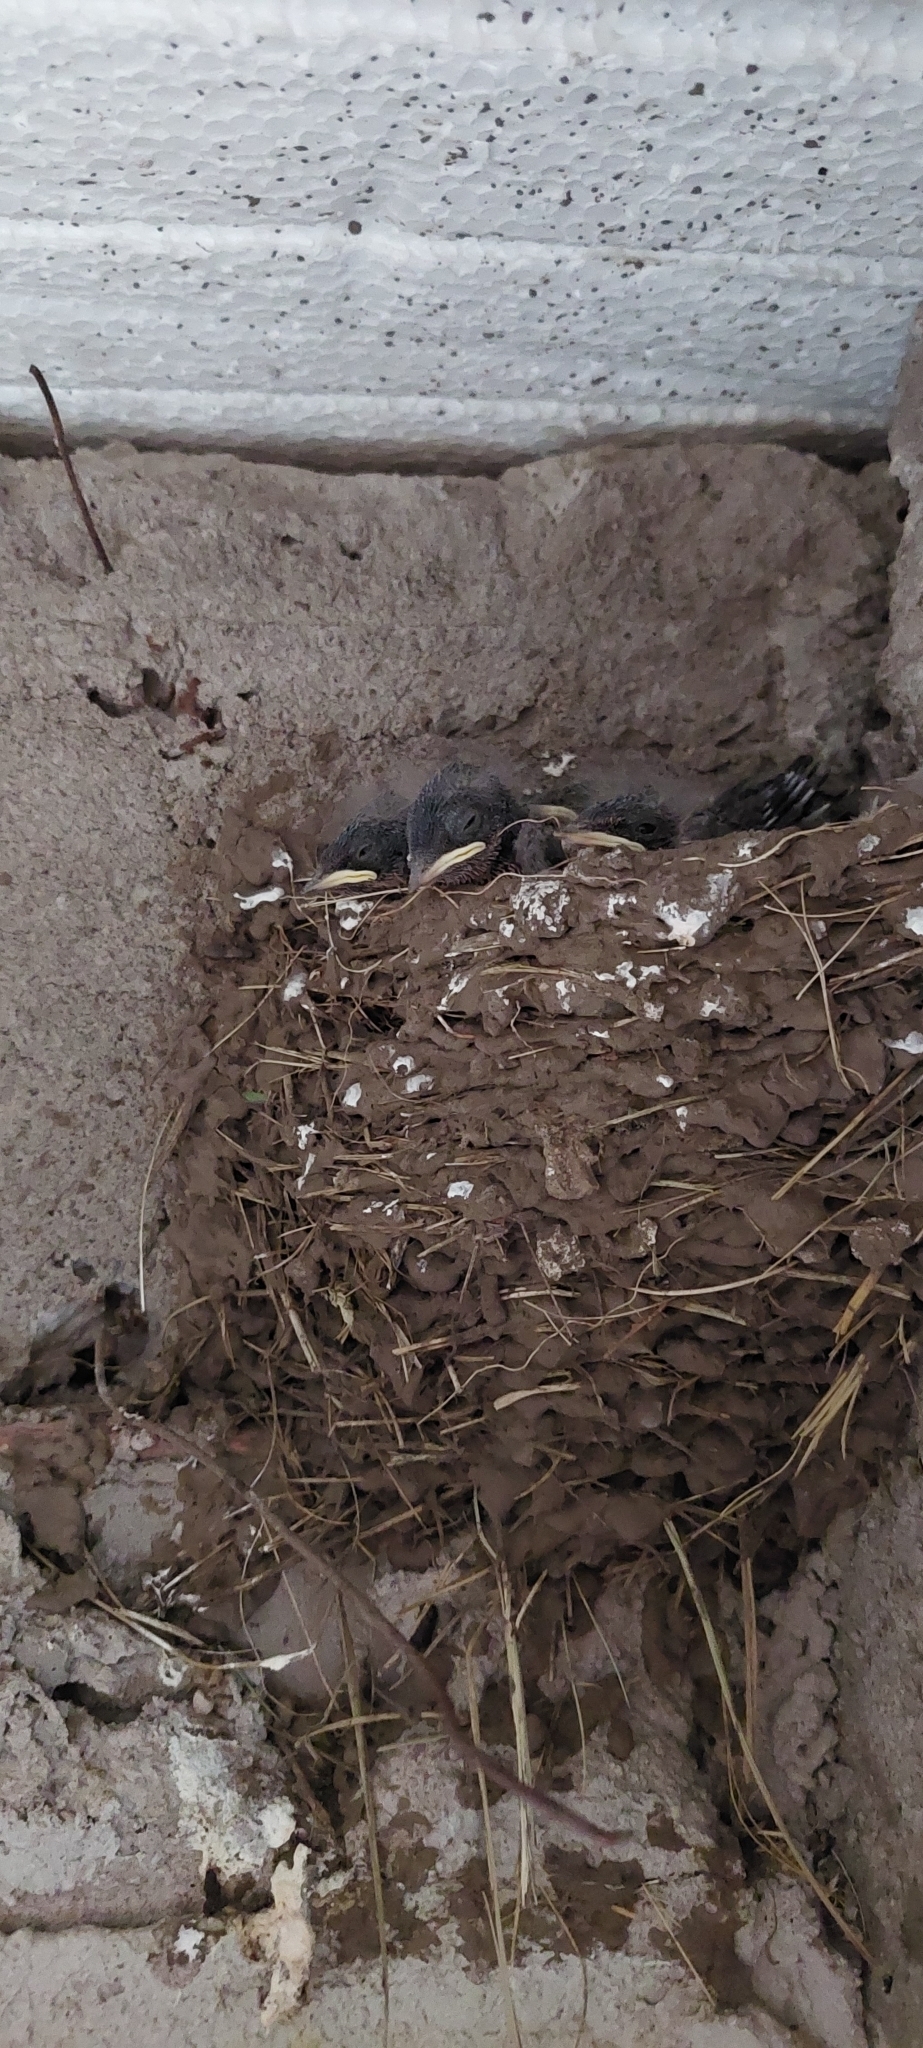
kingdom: Animalia
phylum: Chordata
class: Aves
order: Passeriformes
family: Hirundinidae
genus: Hirundo
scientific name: Hirundo rustica
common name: Barn swallow
